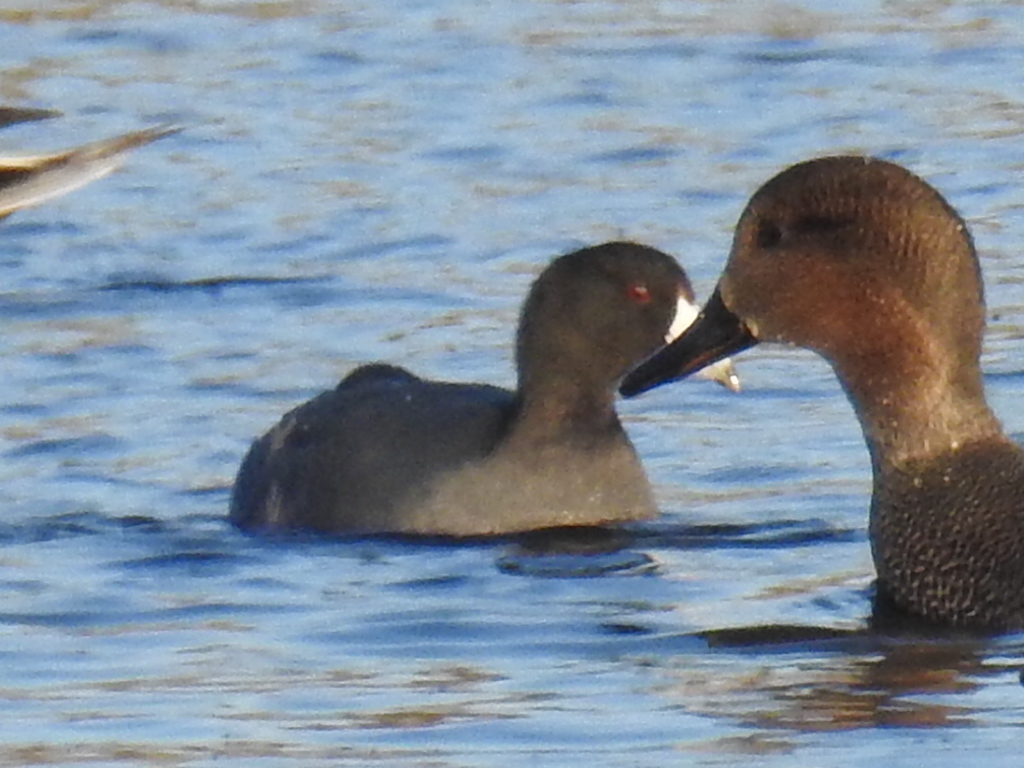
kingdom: Animalia
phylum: Chordata
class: Aves
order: Gruiformes
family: Rallidae
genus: Fulica
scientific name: Fulica americana
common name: American coot
